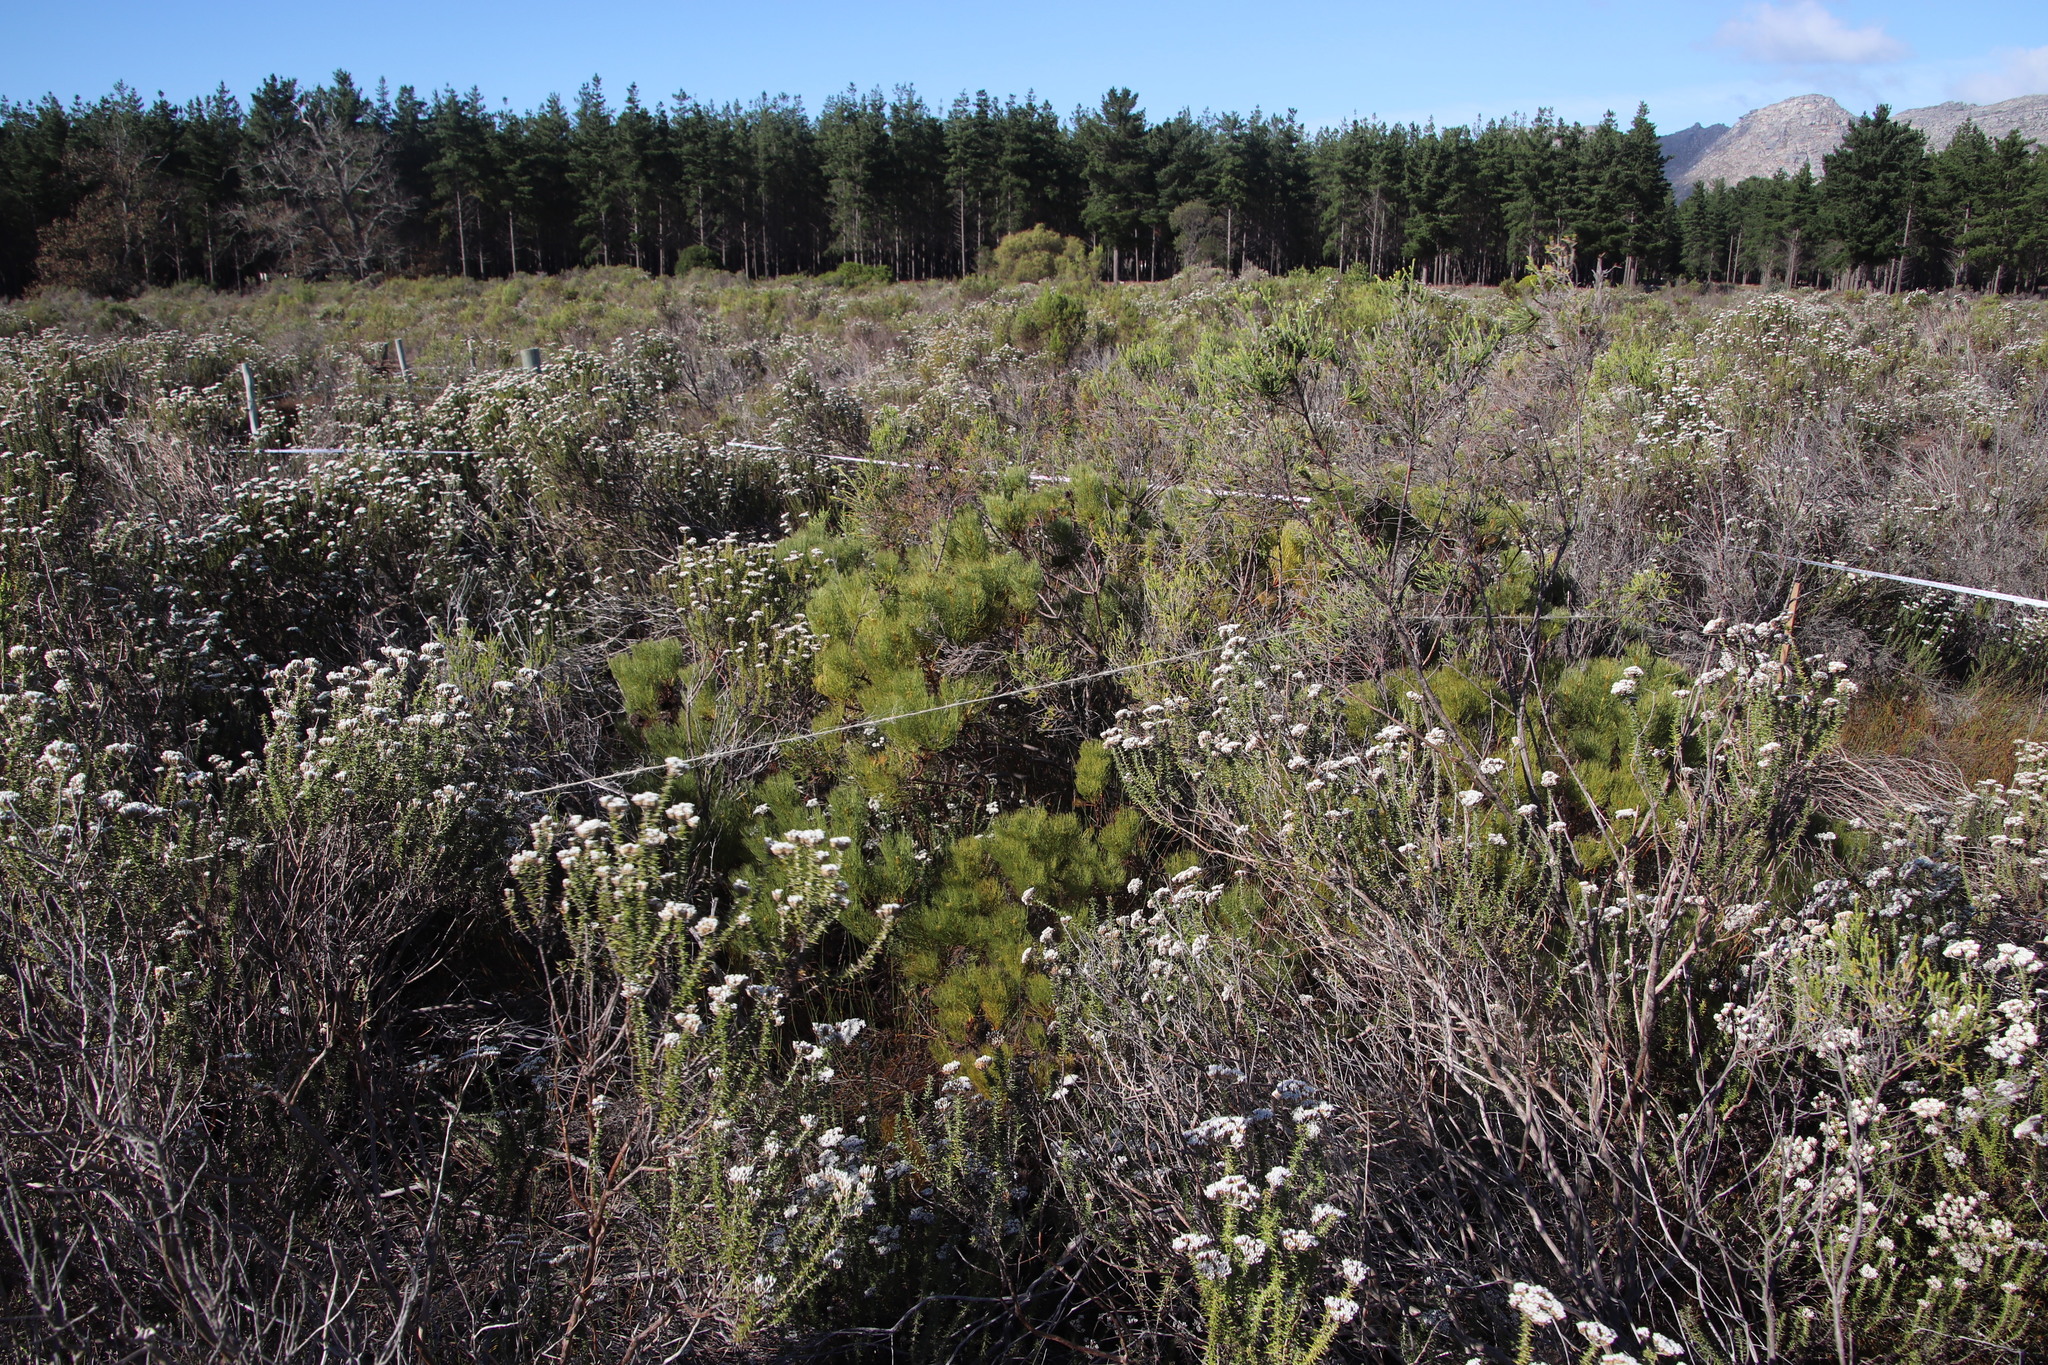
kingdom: Plantae
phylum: Tracheophyta
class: Magnoliopsida
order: Proteales
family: Proteaceae
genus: Serruria
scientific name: Serruria glomerata
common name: Cluster spiderhead
